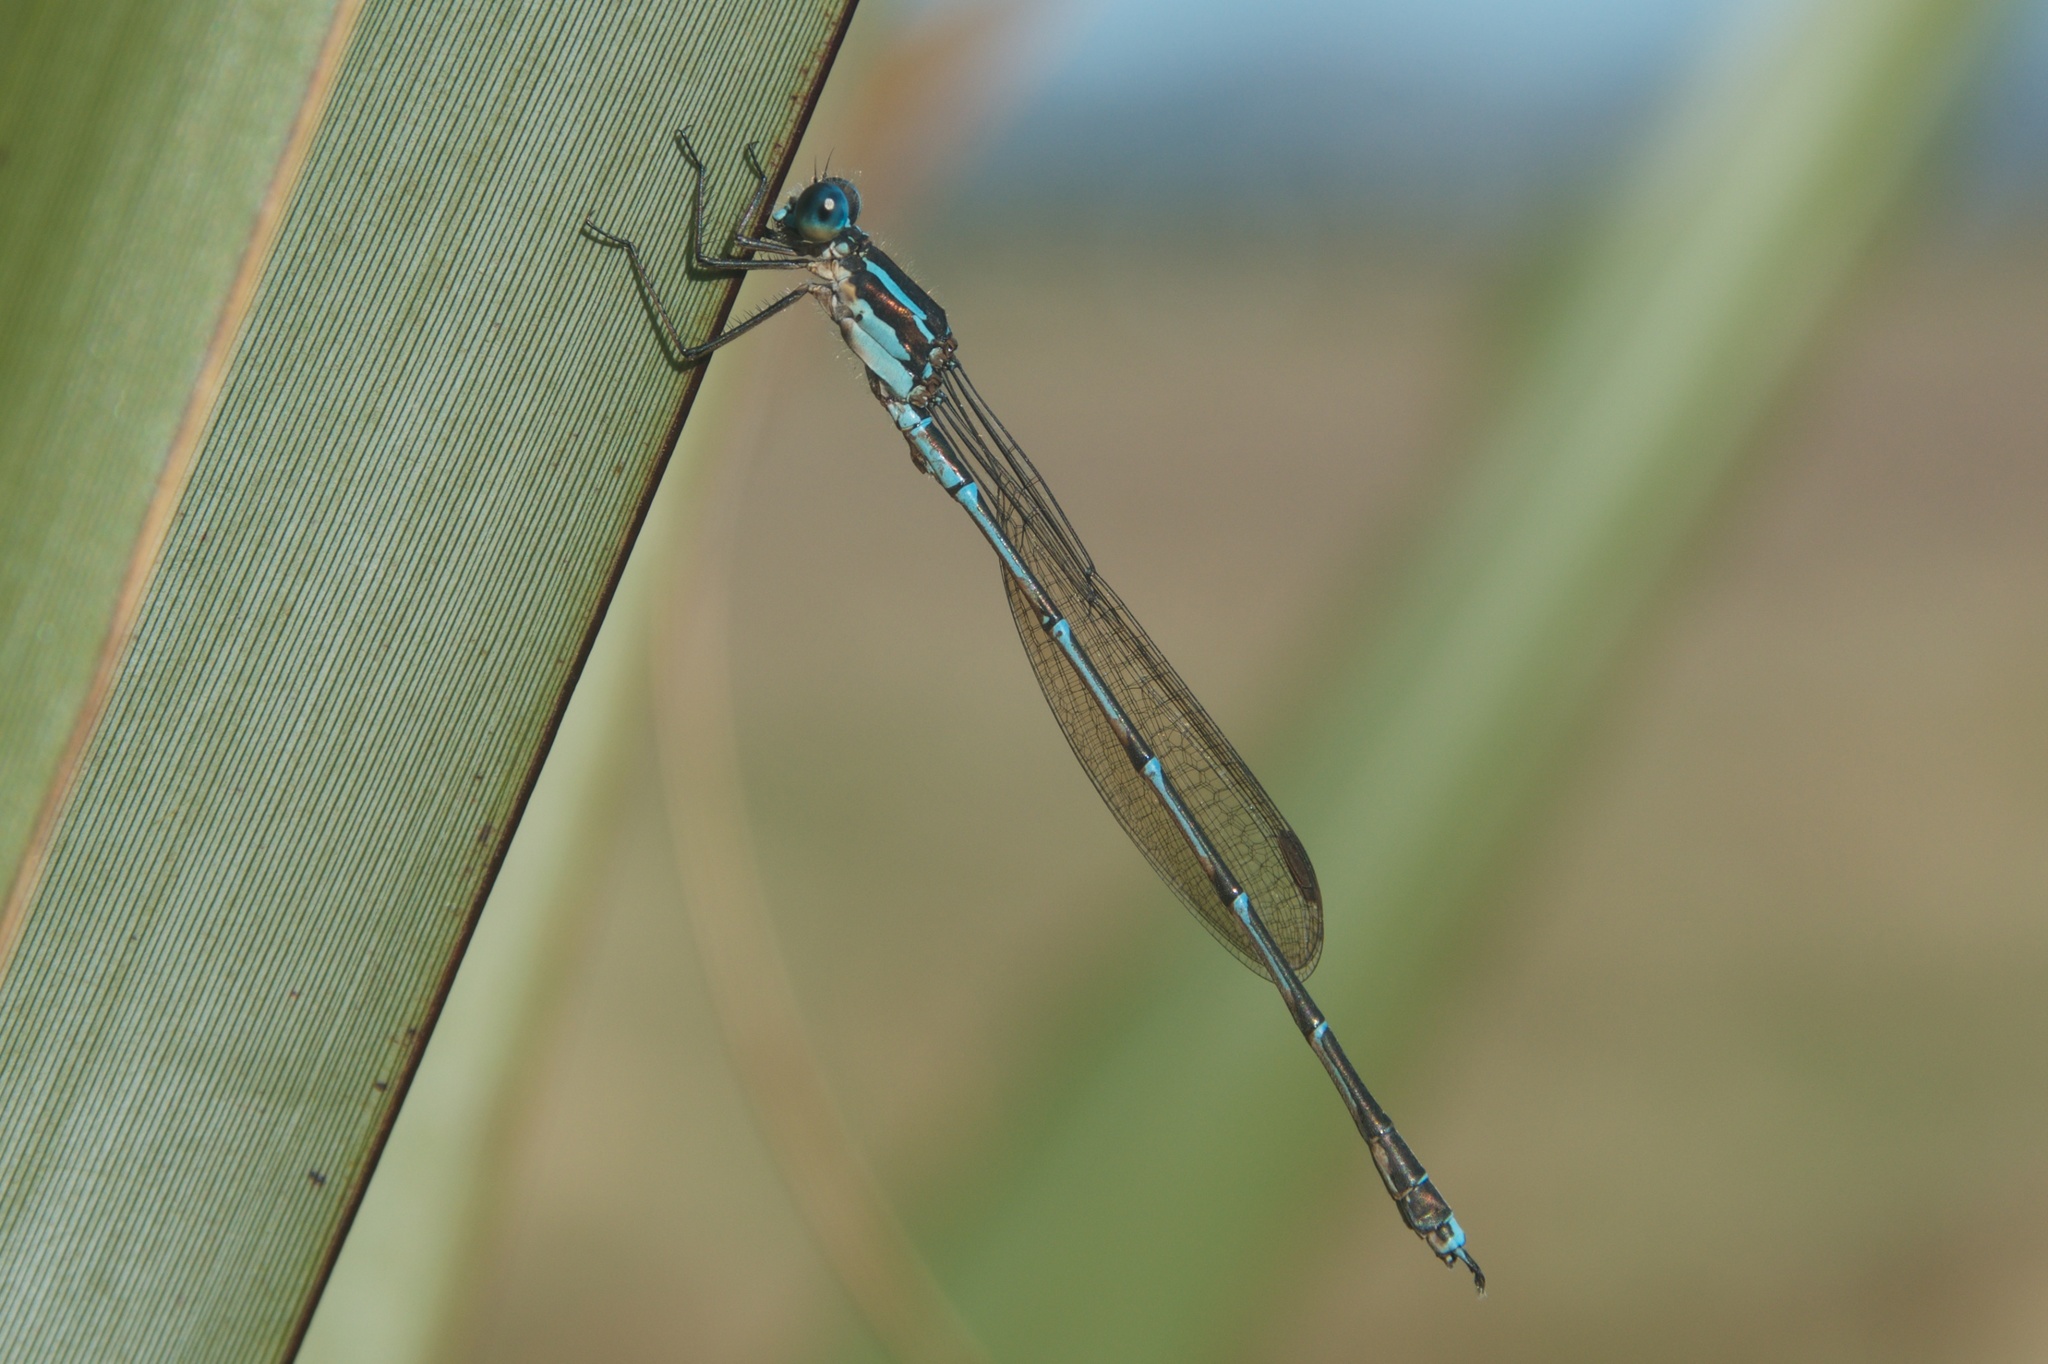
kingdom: Animalia
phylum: Arthropoda
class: Insecta
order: Odonata
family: Lestidae
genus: Austrolestes
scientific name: Austrolestes colensonis
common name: Blue damselfly
